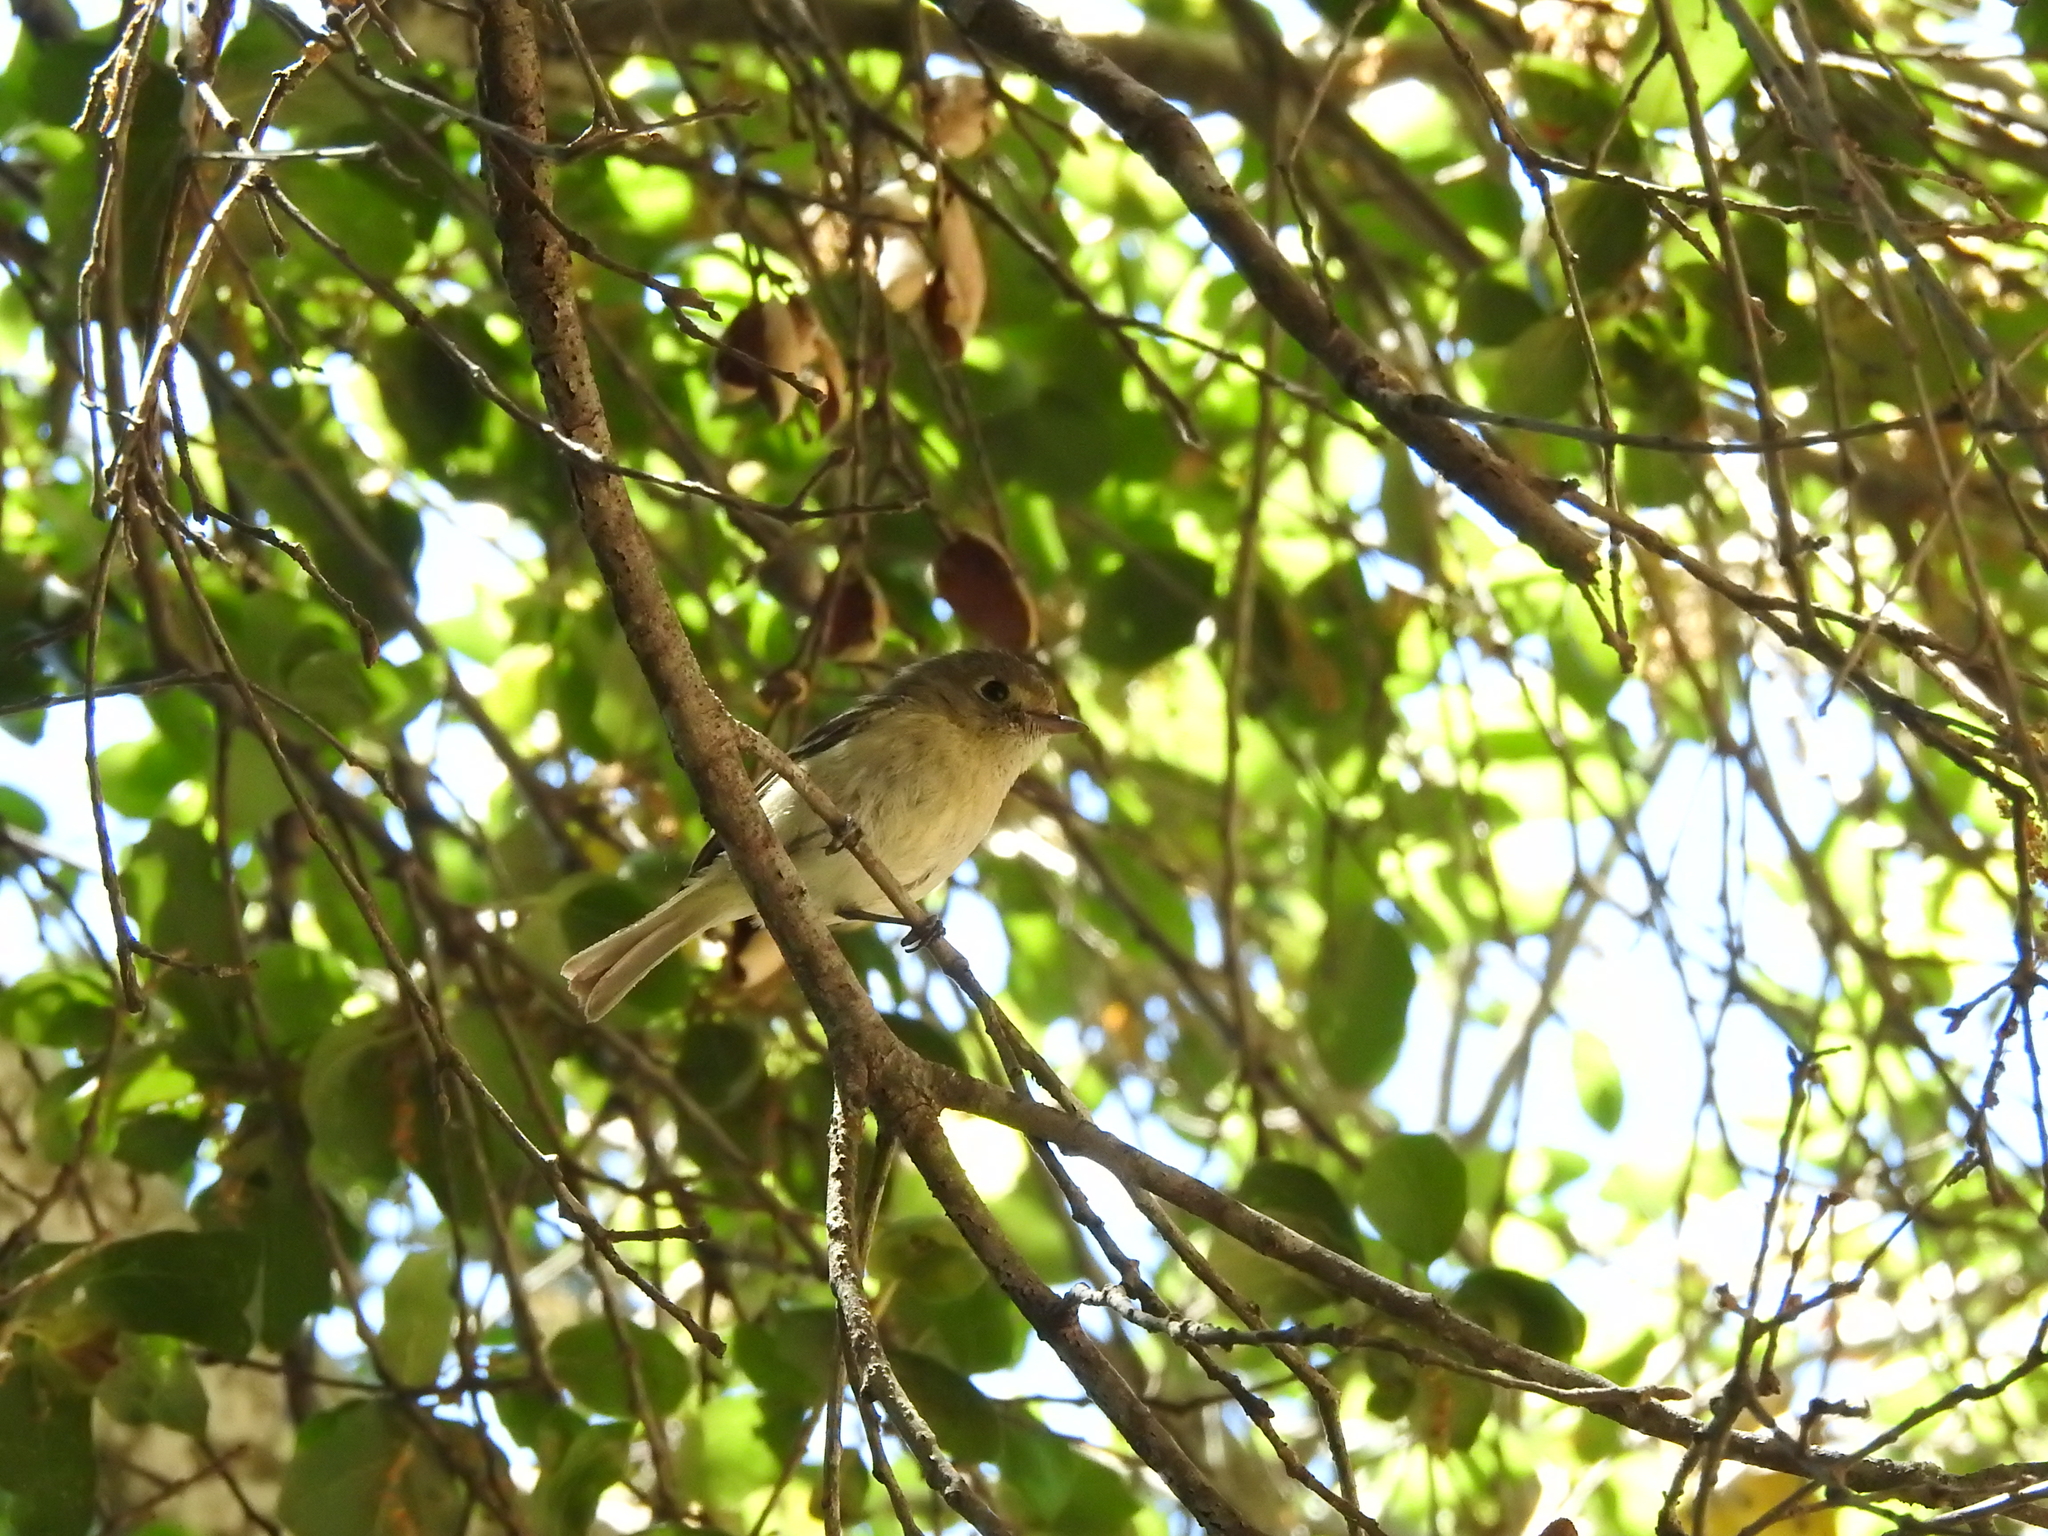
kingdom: Animalia
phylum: Chordata
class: Aves
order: Passeriformes
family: Vireonidae
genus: Vireo
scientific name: Vireo huttoni
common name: Hutton's vireo
